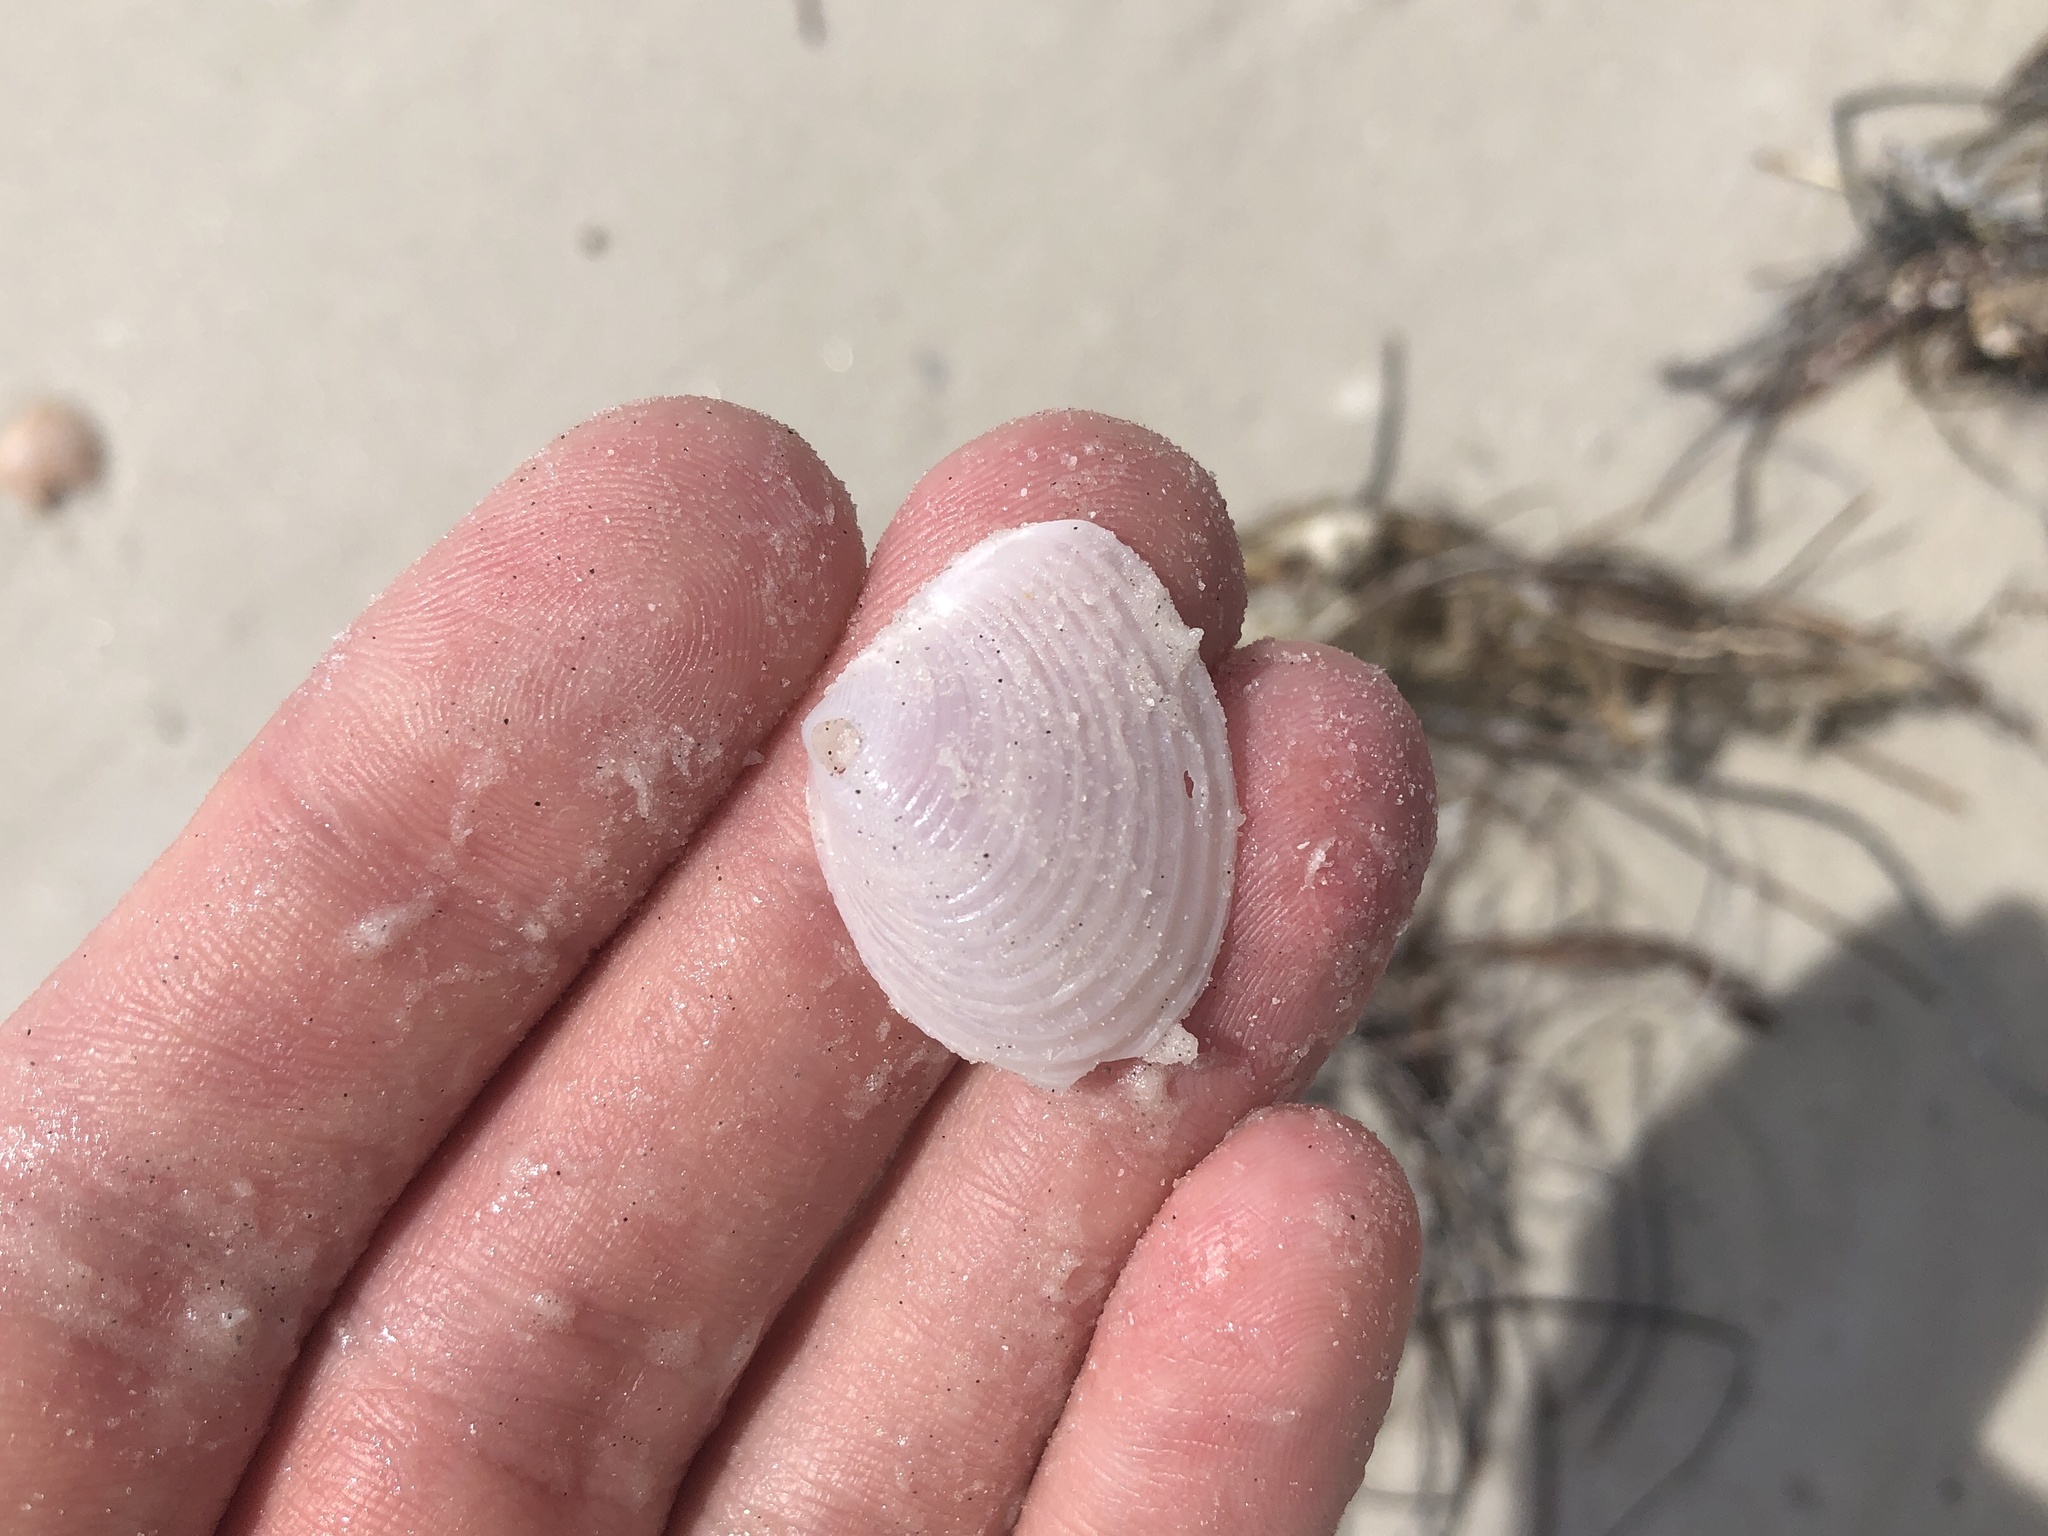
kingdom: Animalia
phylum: Mollusca
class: Bivalvia
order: Venerida
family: Anatinellidae
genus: Raeta
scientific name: Raeta plicatella
